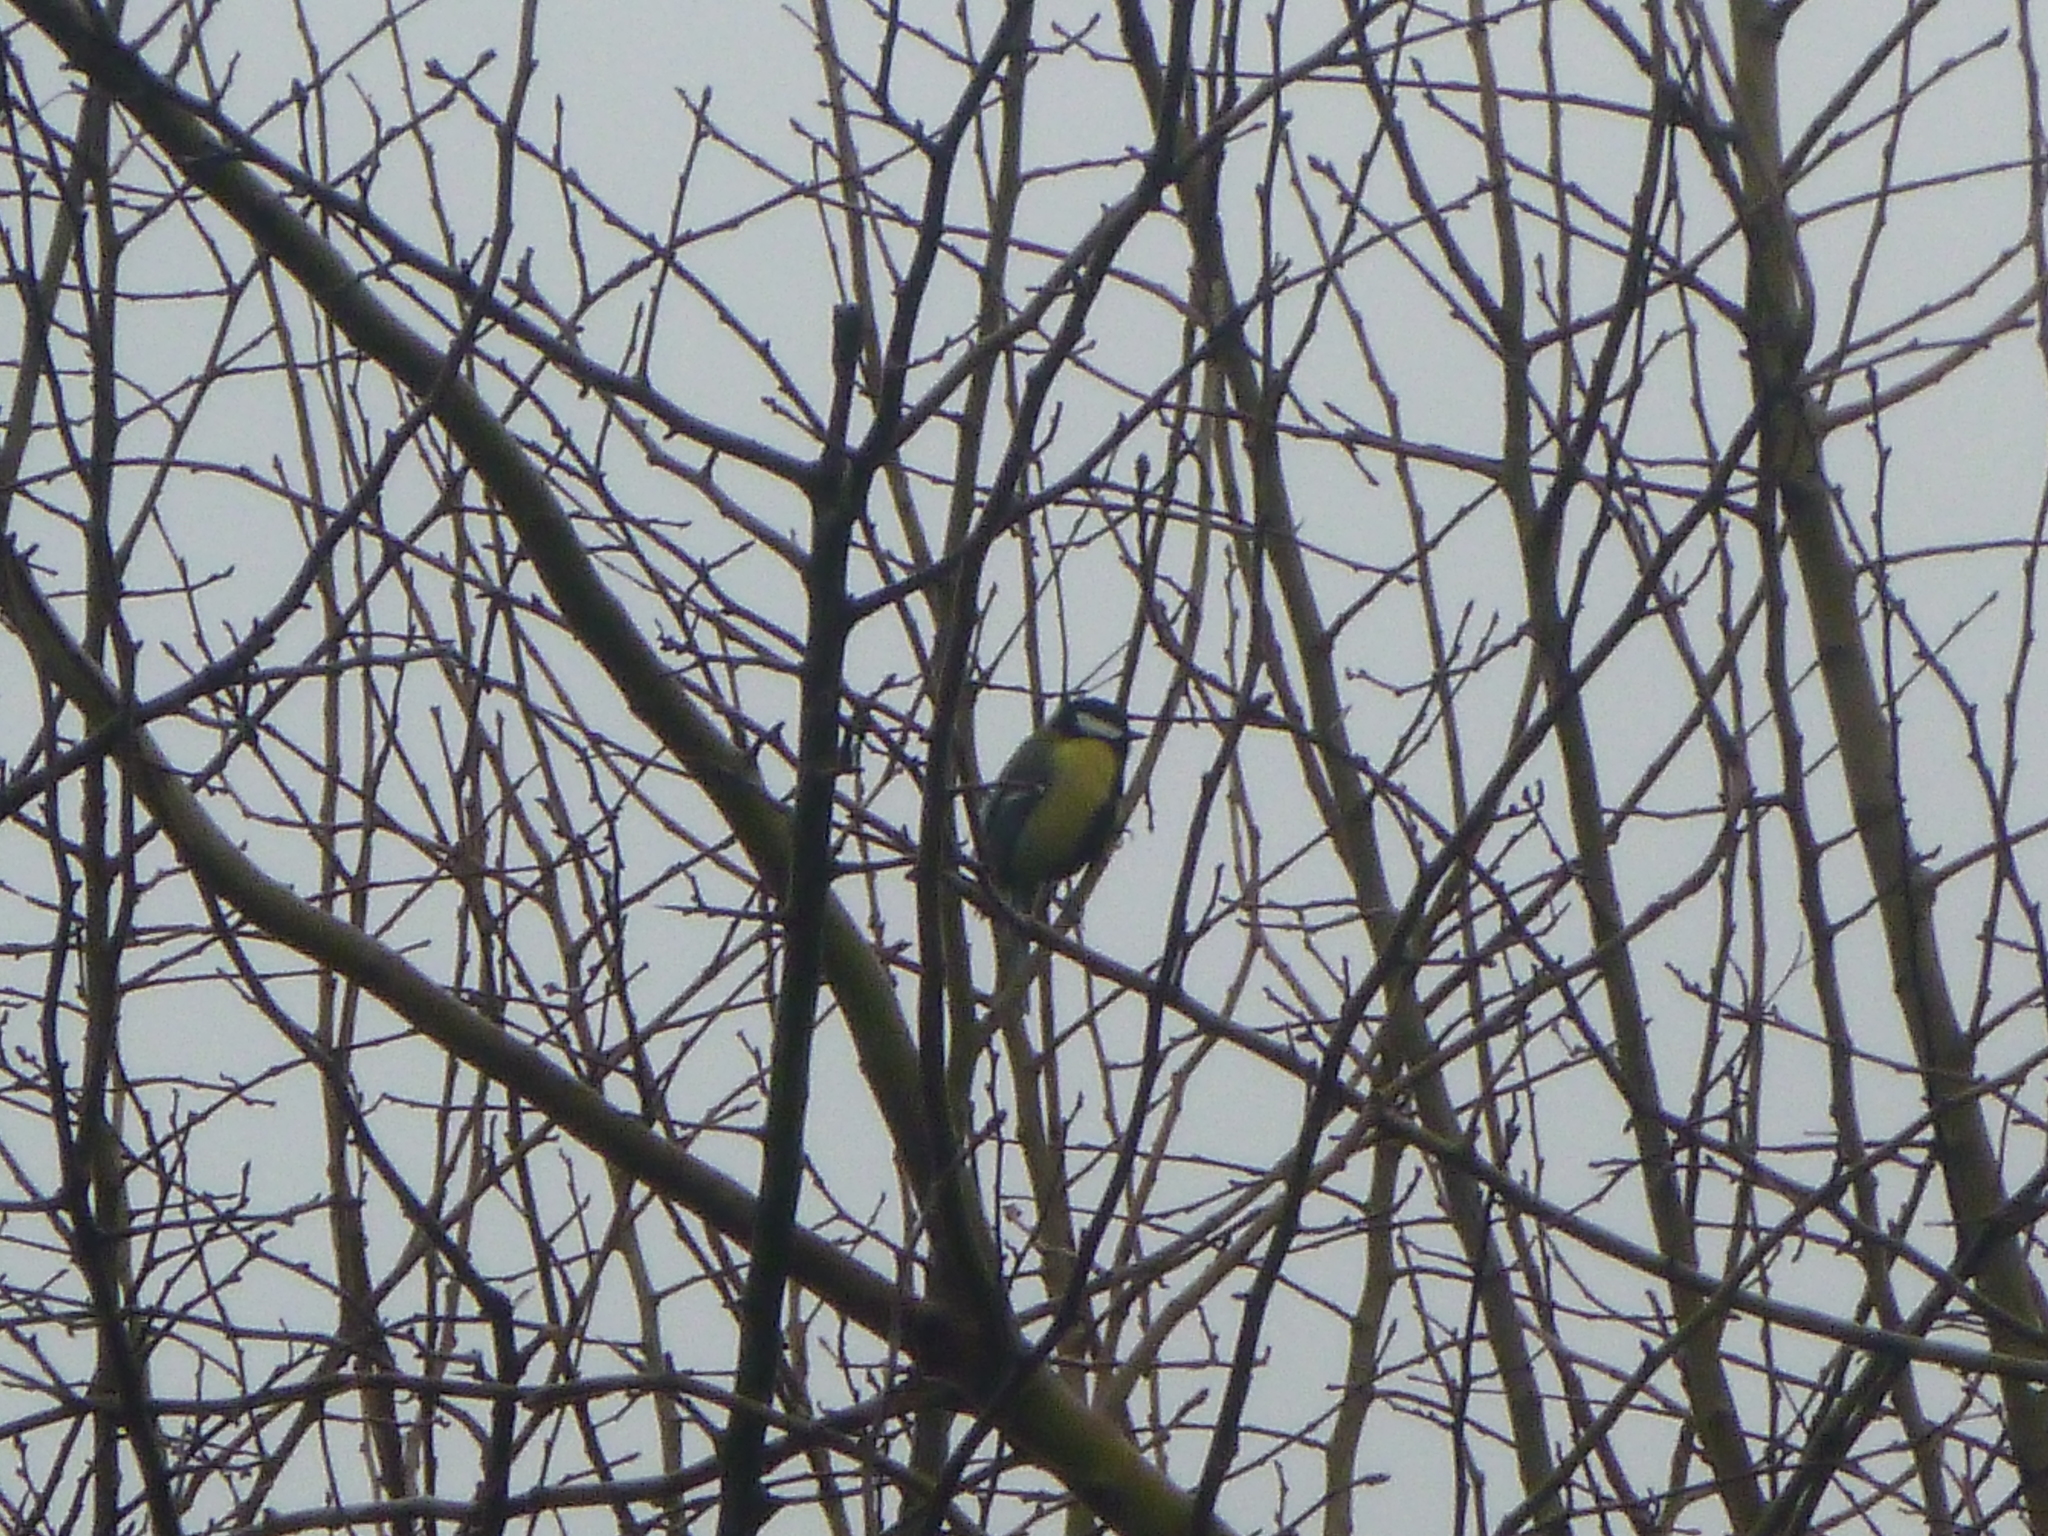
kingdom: Animalia
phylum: Chordata
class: Aves
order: Passeriformes
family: Paridae
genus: Parus
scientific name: Parus major
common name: Great tit
